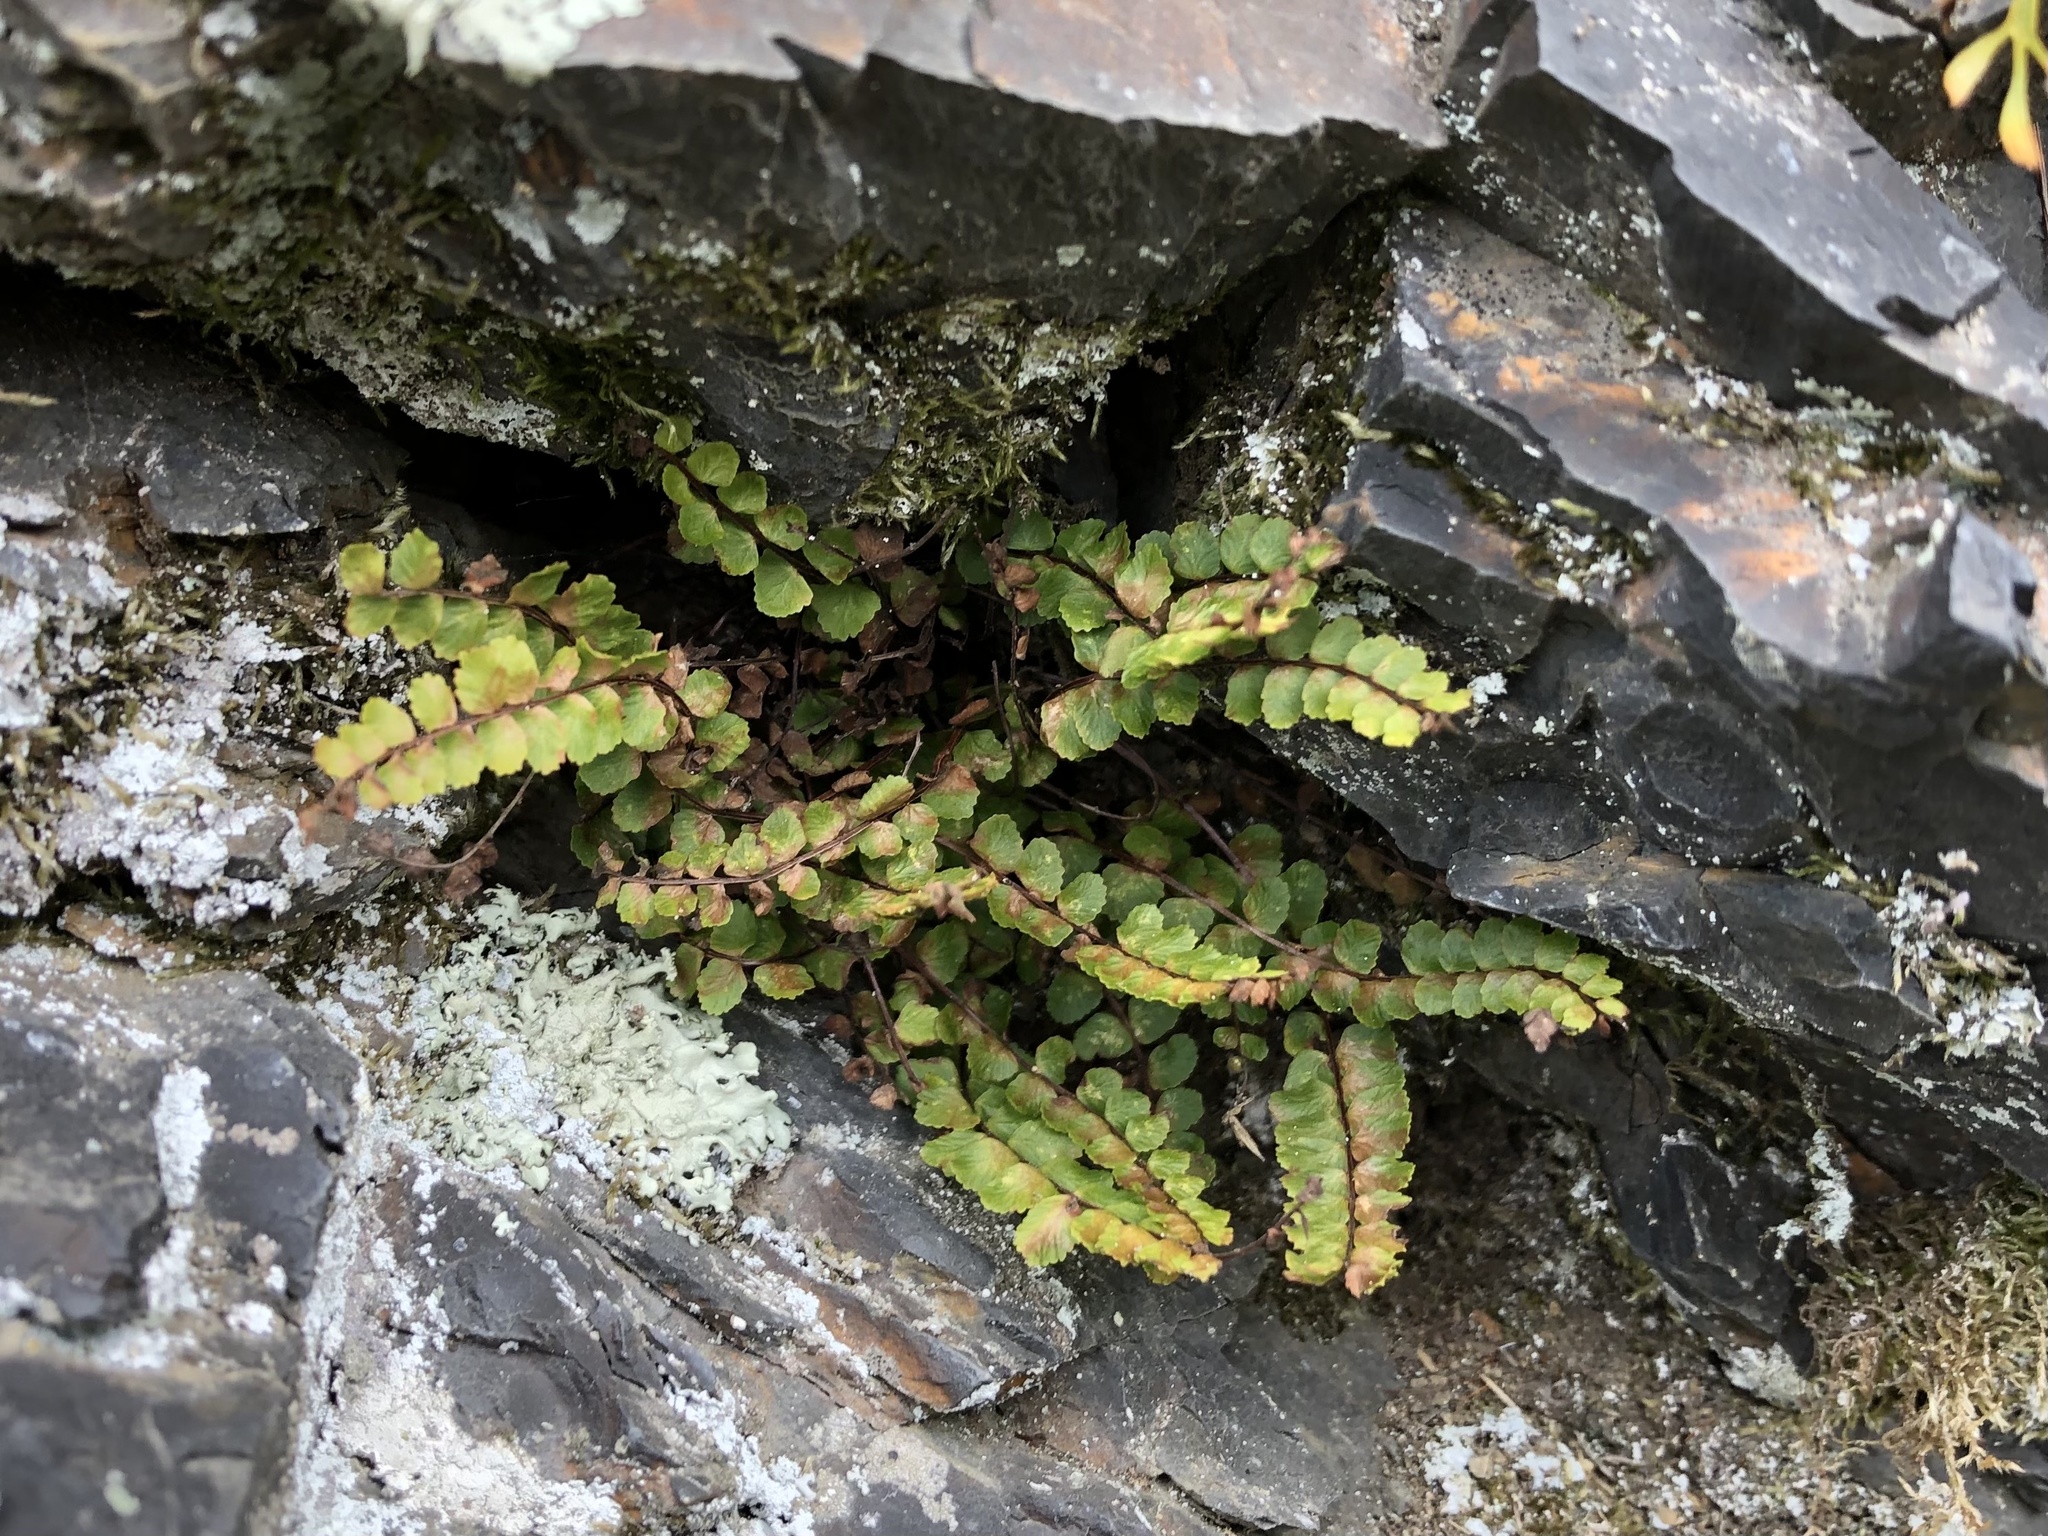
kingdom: Plantae
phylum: Tracheophyta
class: Polypodiopsida
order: Polypodiales
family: Aspleniaceae
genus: Asplenium
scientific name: Asplenium trichomanes
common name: Maidenhair spleenwort
